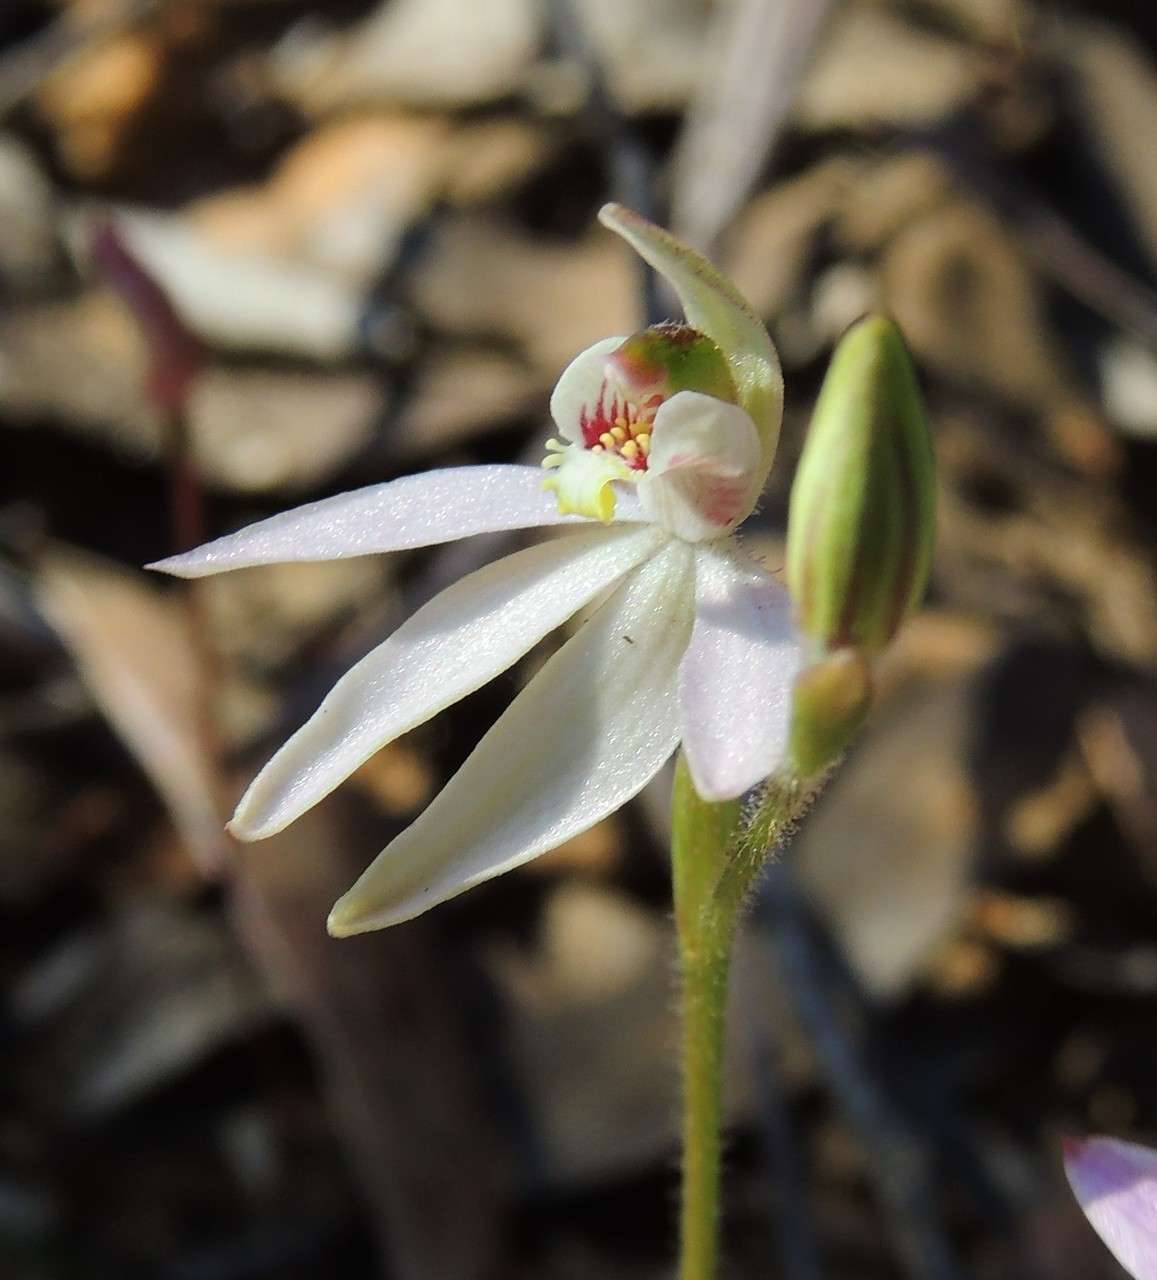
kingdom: Plantae
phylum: Tracheophyta
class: Liliopsida
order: Asparagales
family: Orchidaceae
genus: Caladenia
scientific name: Caladenia carnea
